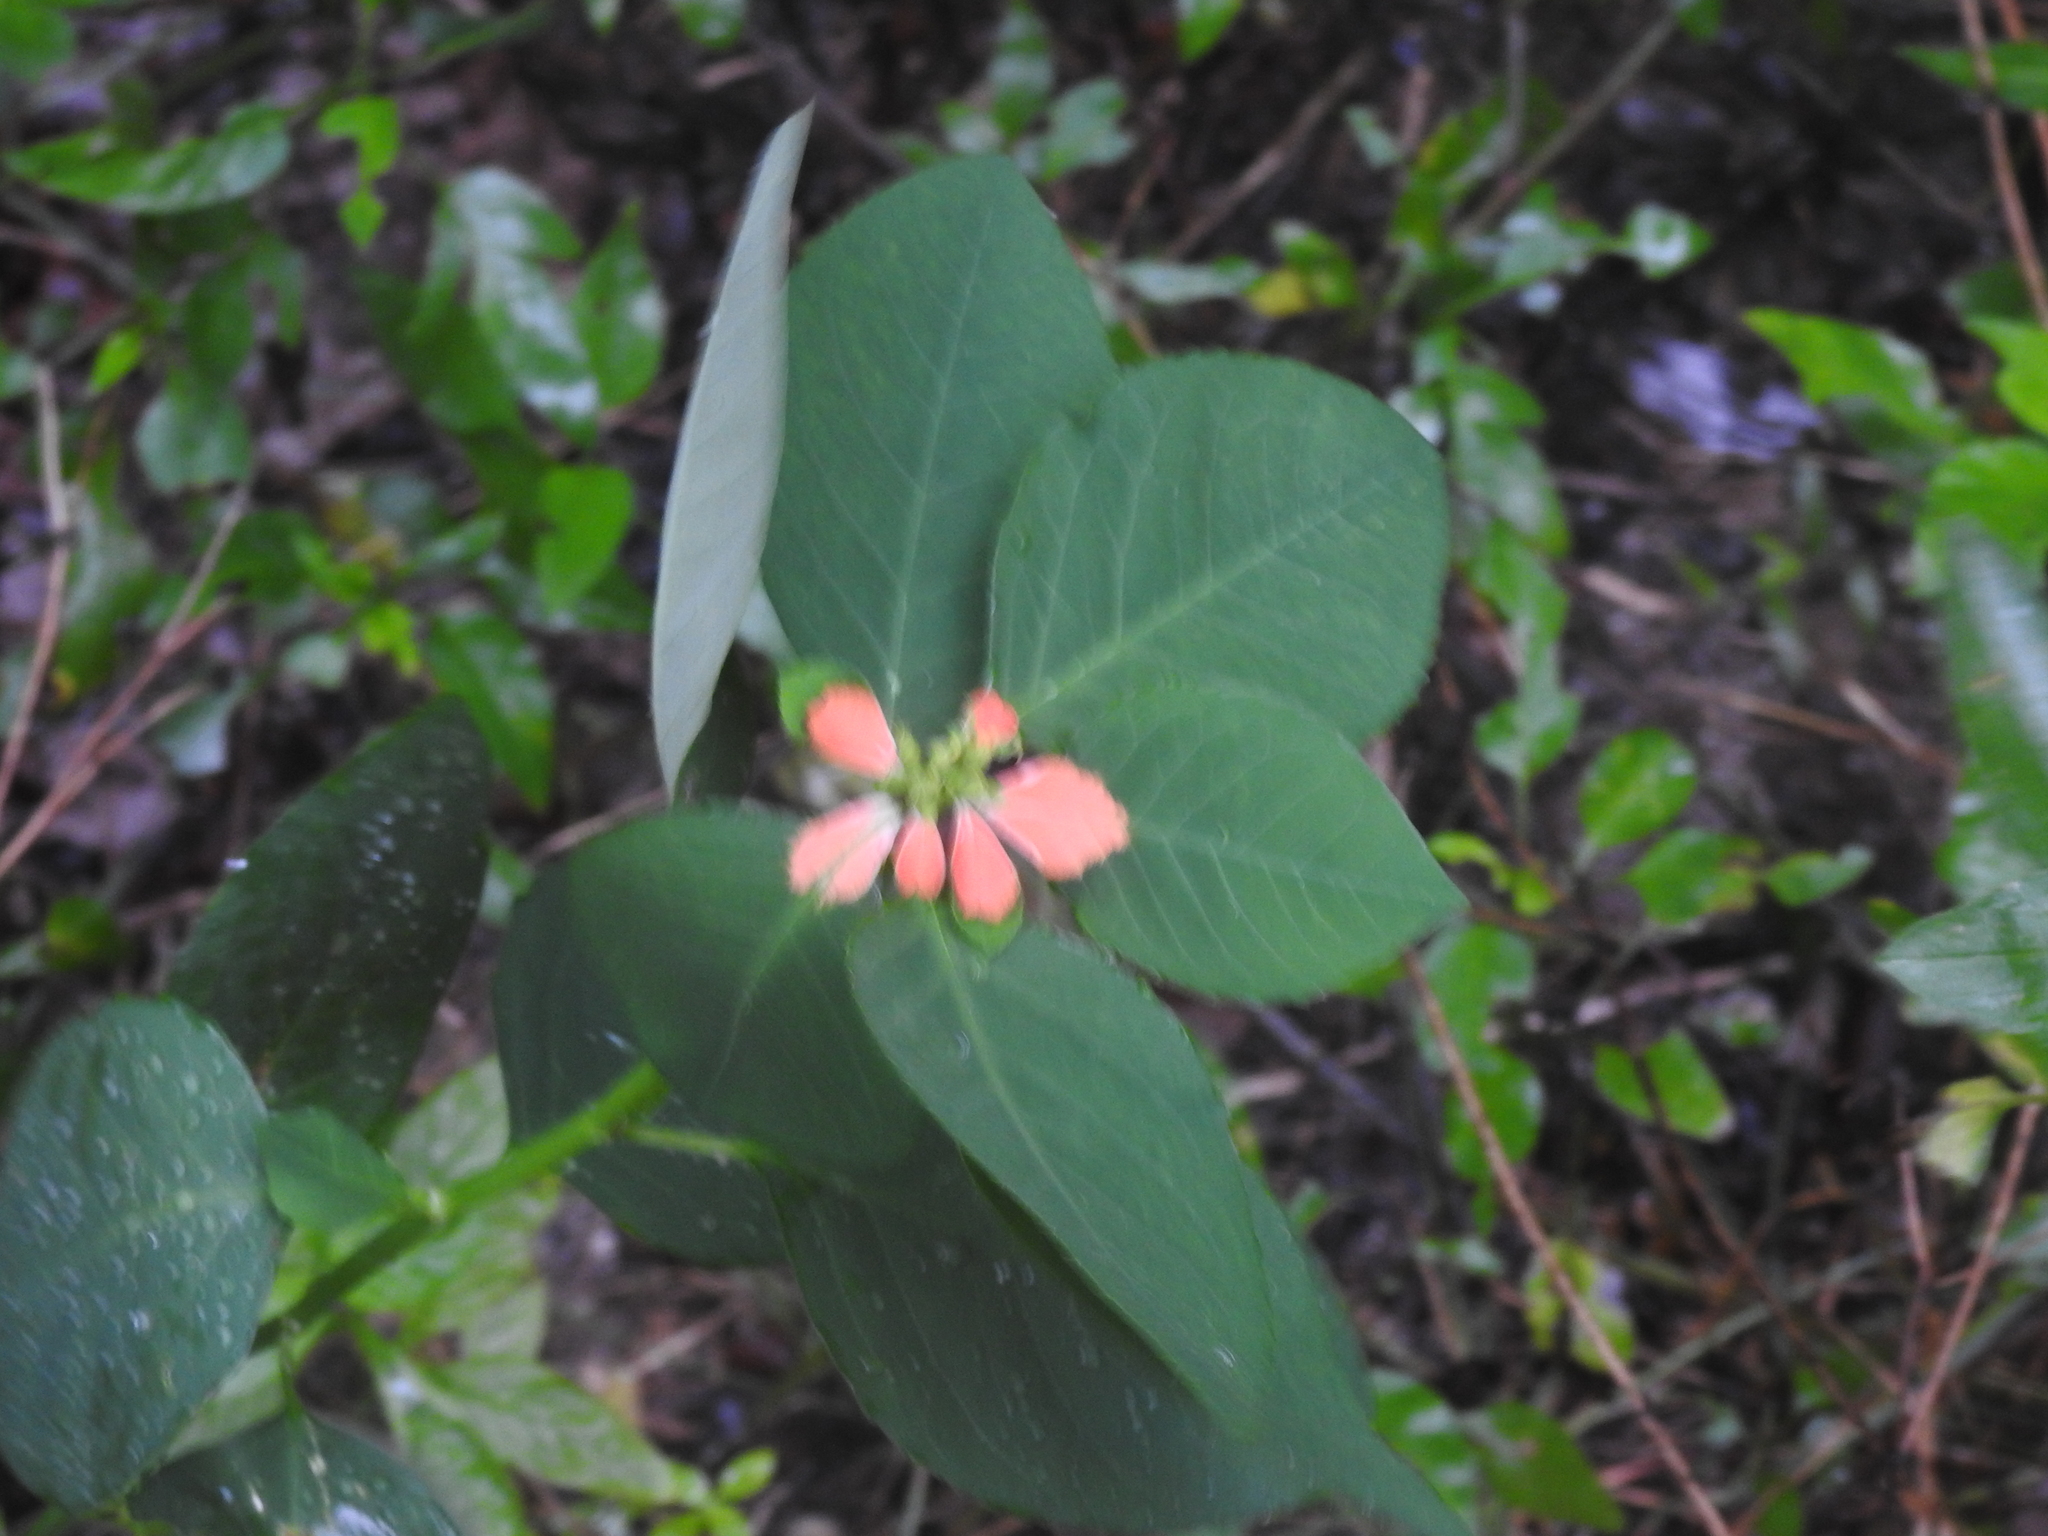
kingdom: Plantae
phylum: Tracheophyta
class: Magnoliopsida
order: Malpighiales
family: Euphorbiaceae
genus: Euphorbia
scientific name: Euphorbia heterophylla
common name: Mexican fireplant
